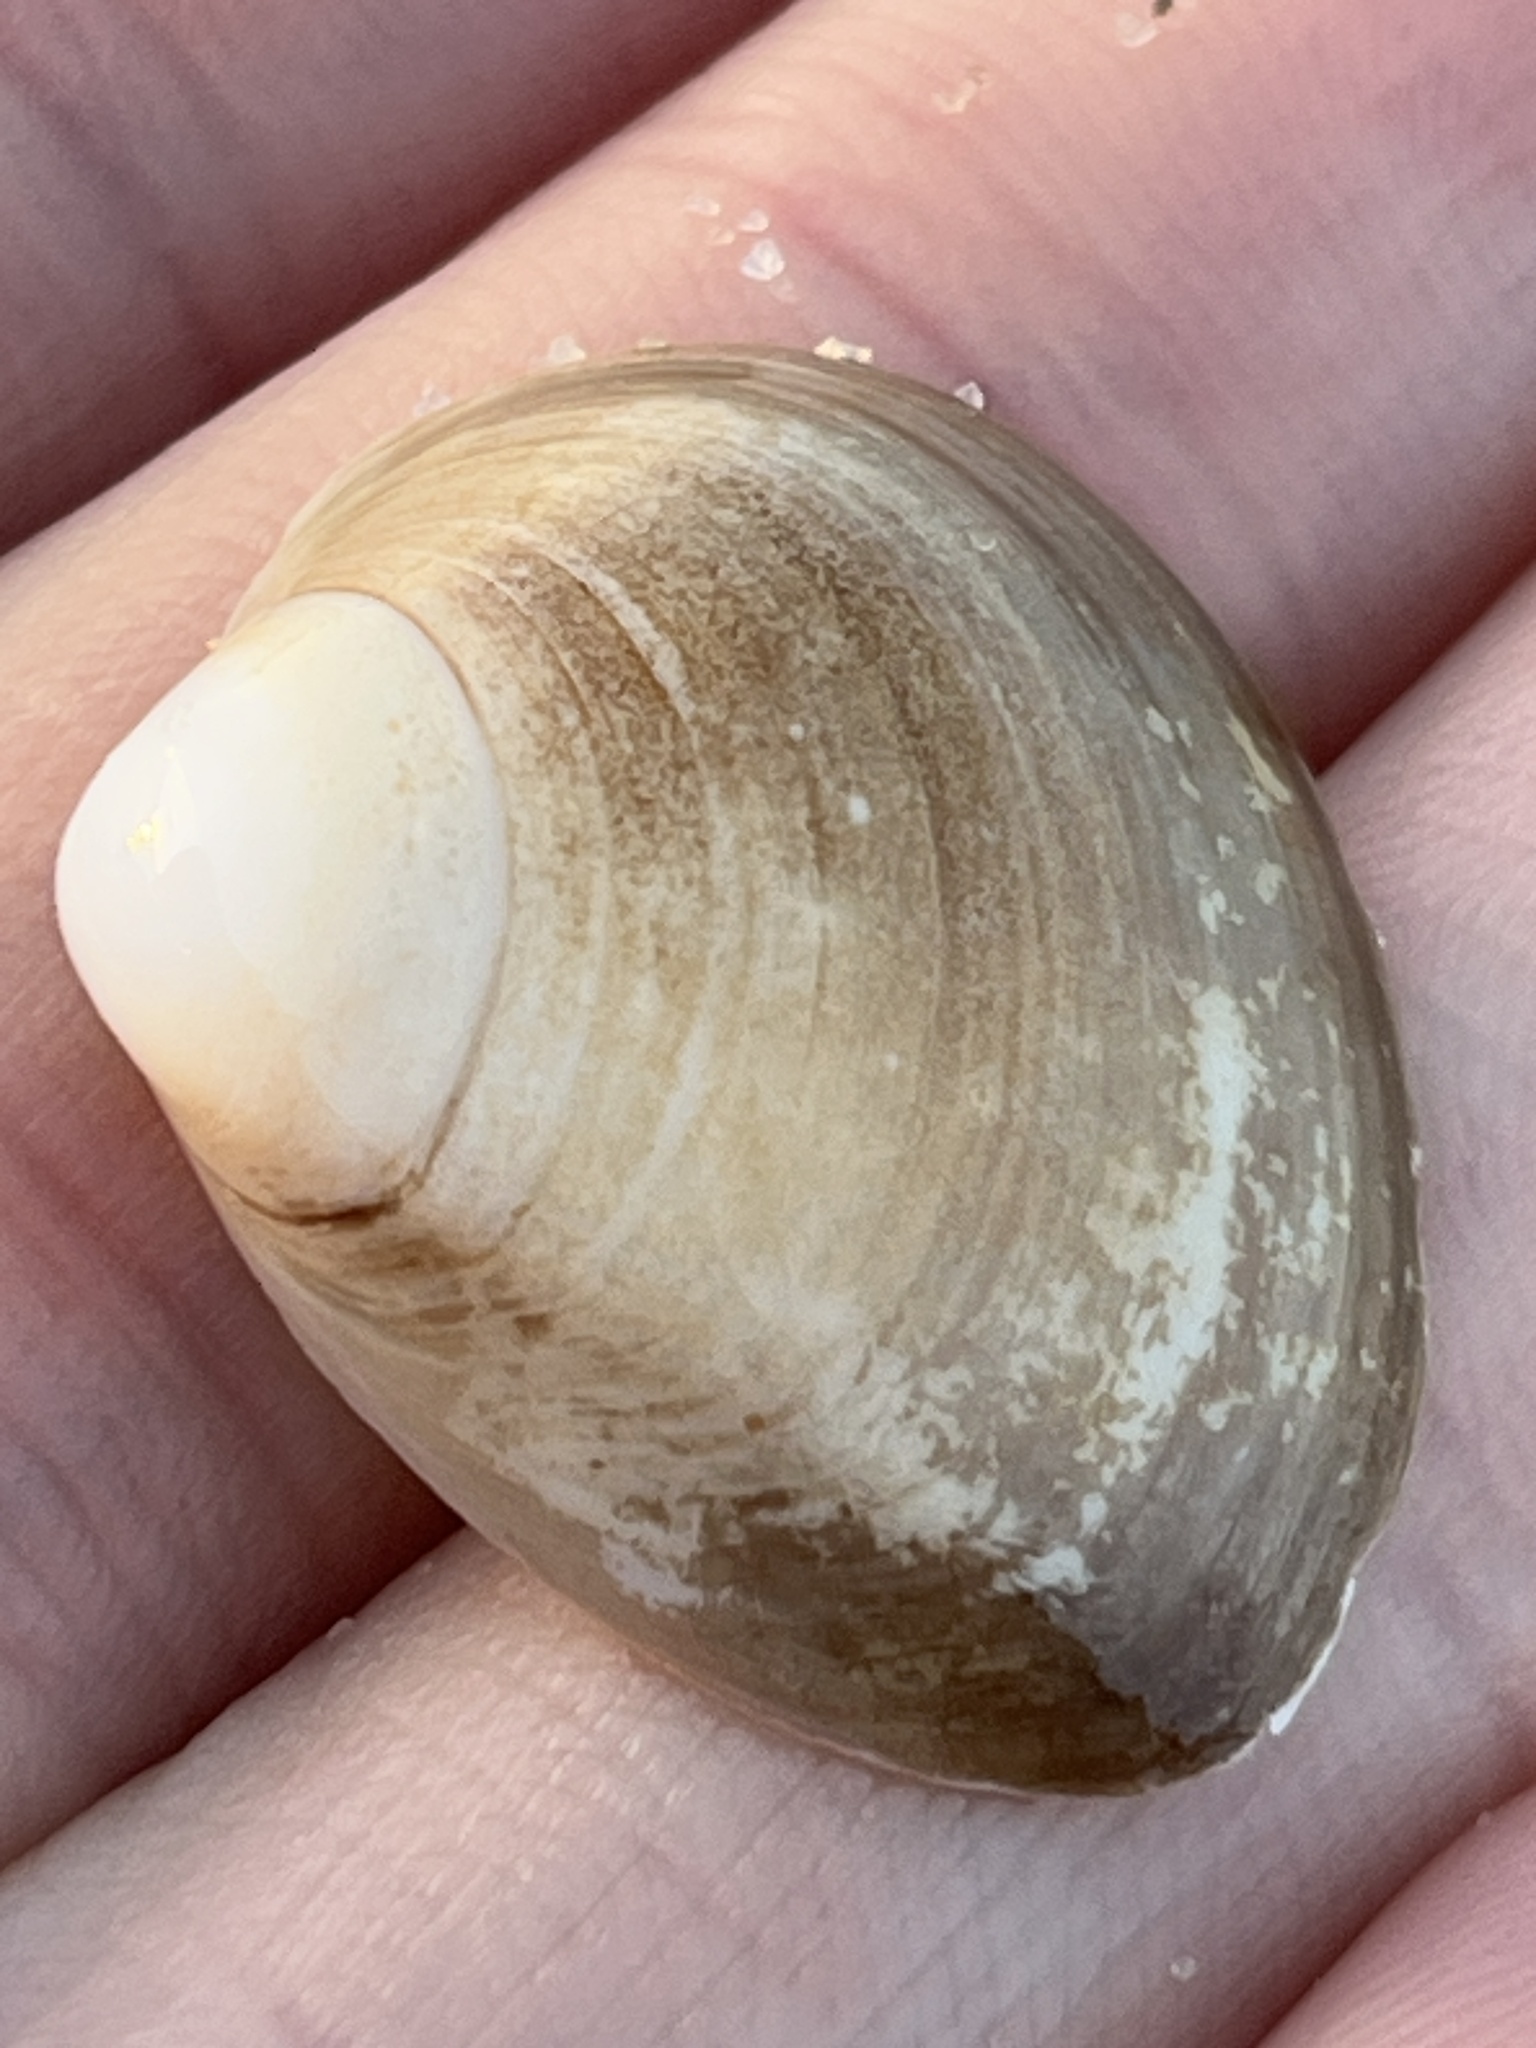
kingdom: Animalia
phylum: Mollusca
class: Bivalvia
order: Venerida
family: Mactridae
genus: Rangia
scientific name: Rangia cuneata
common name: Atlantic rangia
